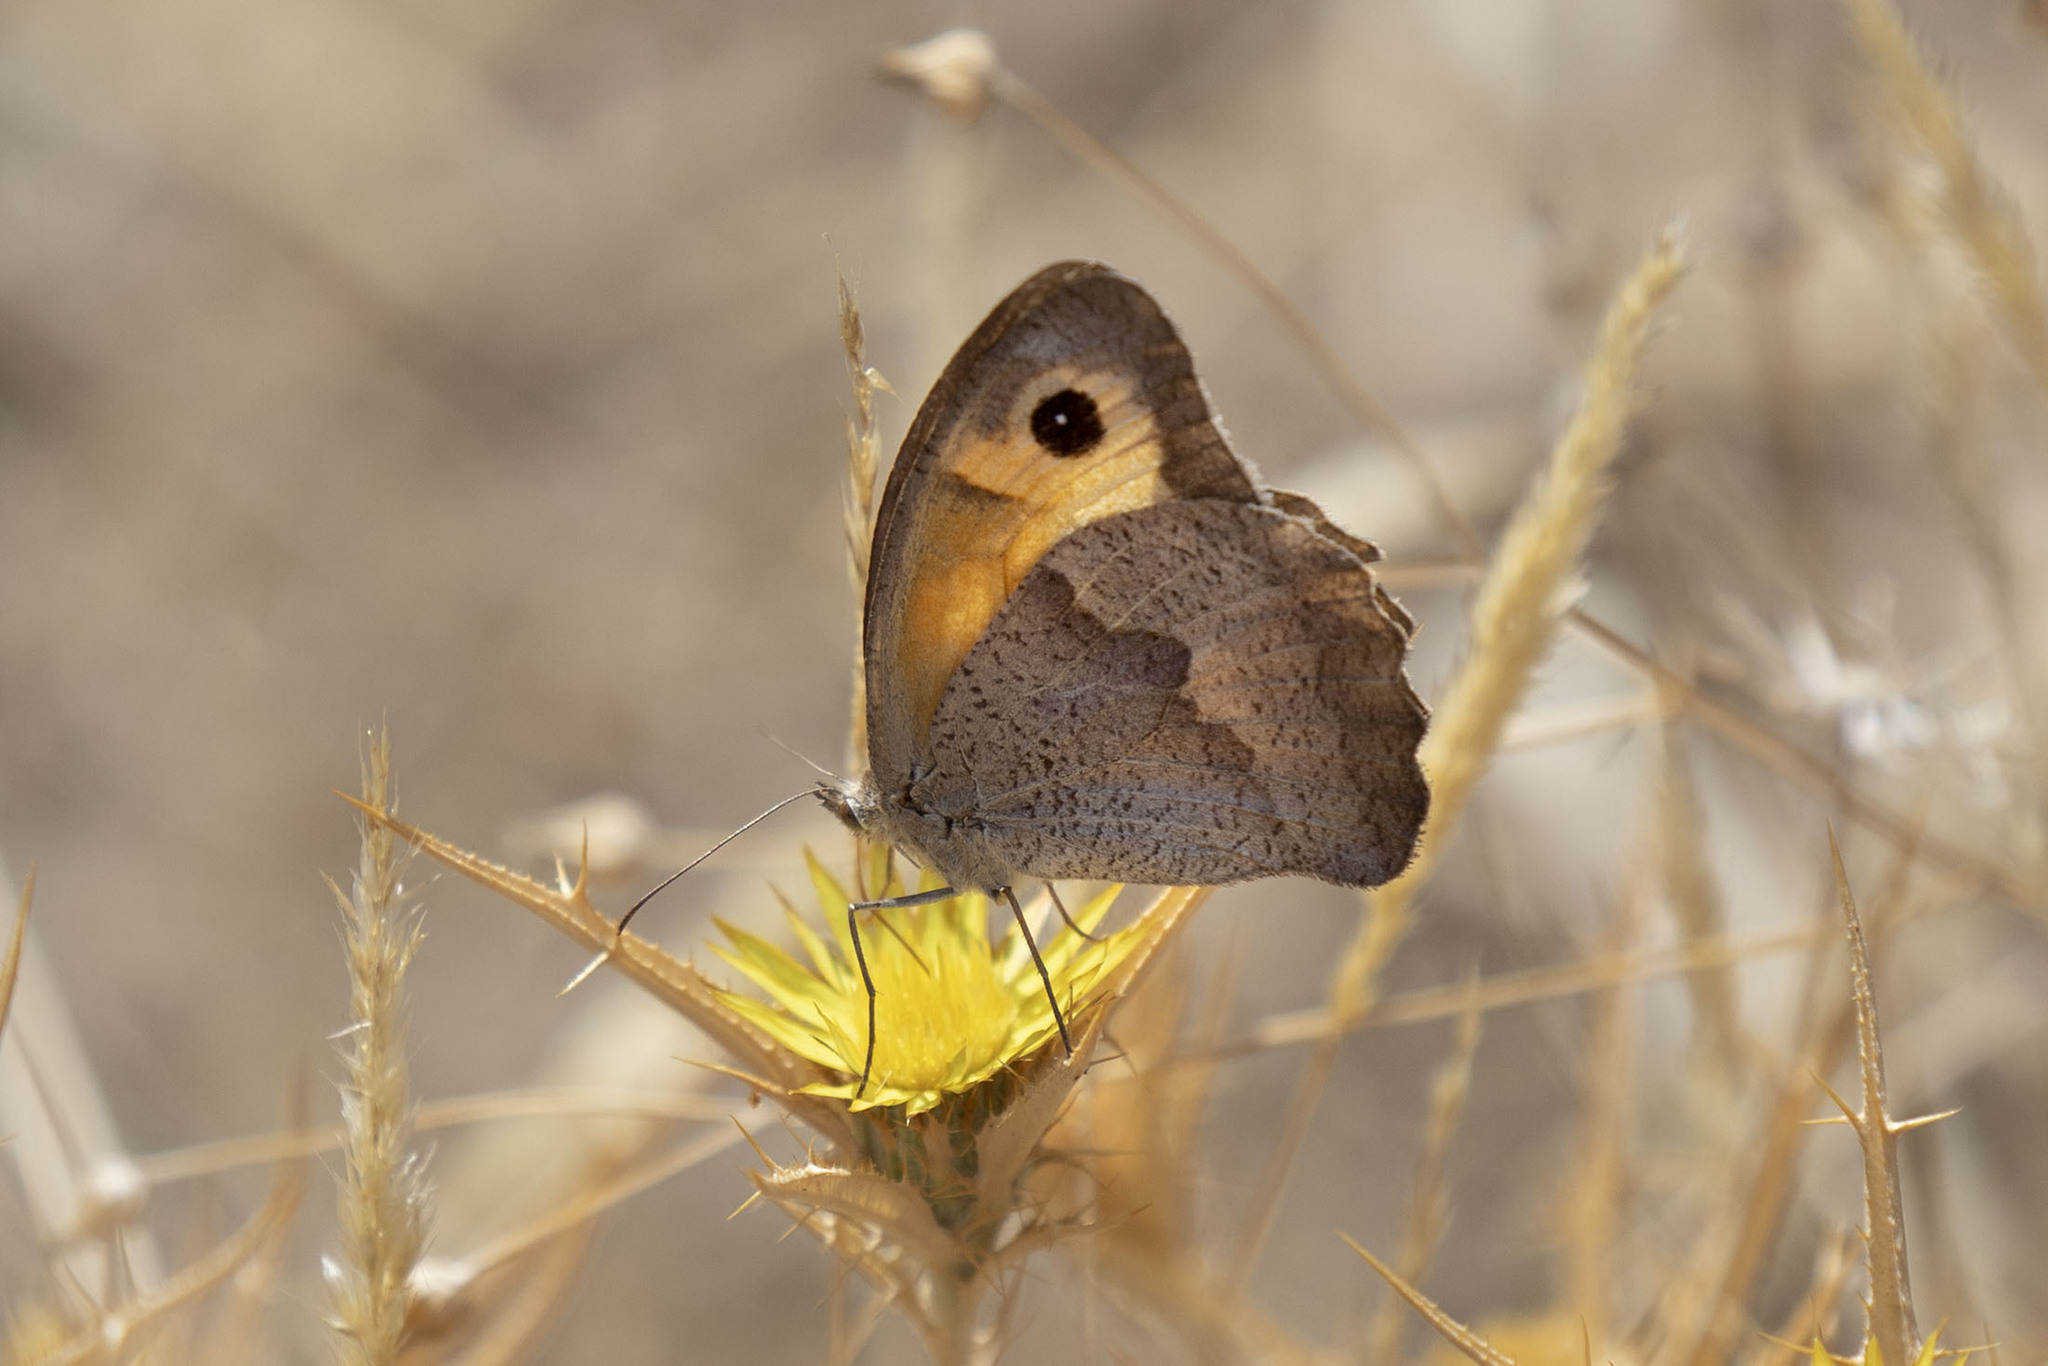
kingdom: Animalia
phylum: Arthropoda
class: Insecta
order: Lepidoptera
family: Nymphalidae
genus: Maniola
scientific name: Maniola jurtina
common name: Meadow brown
